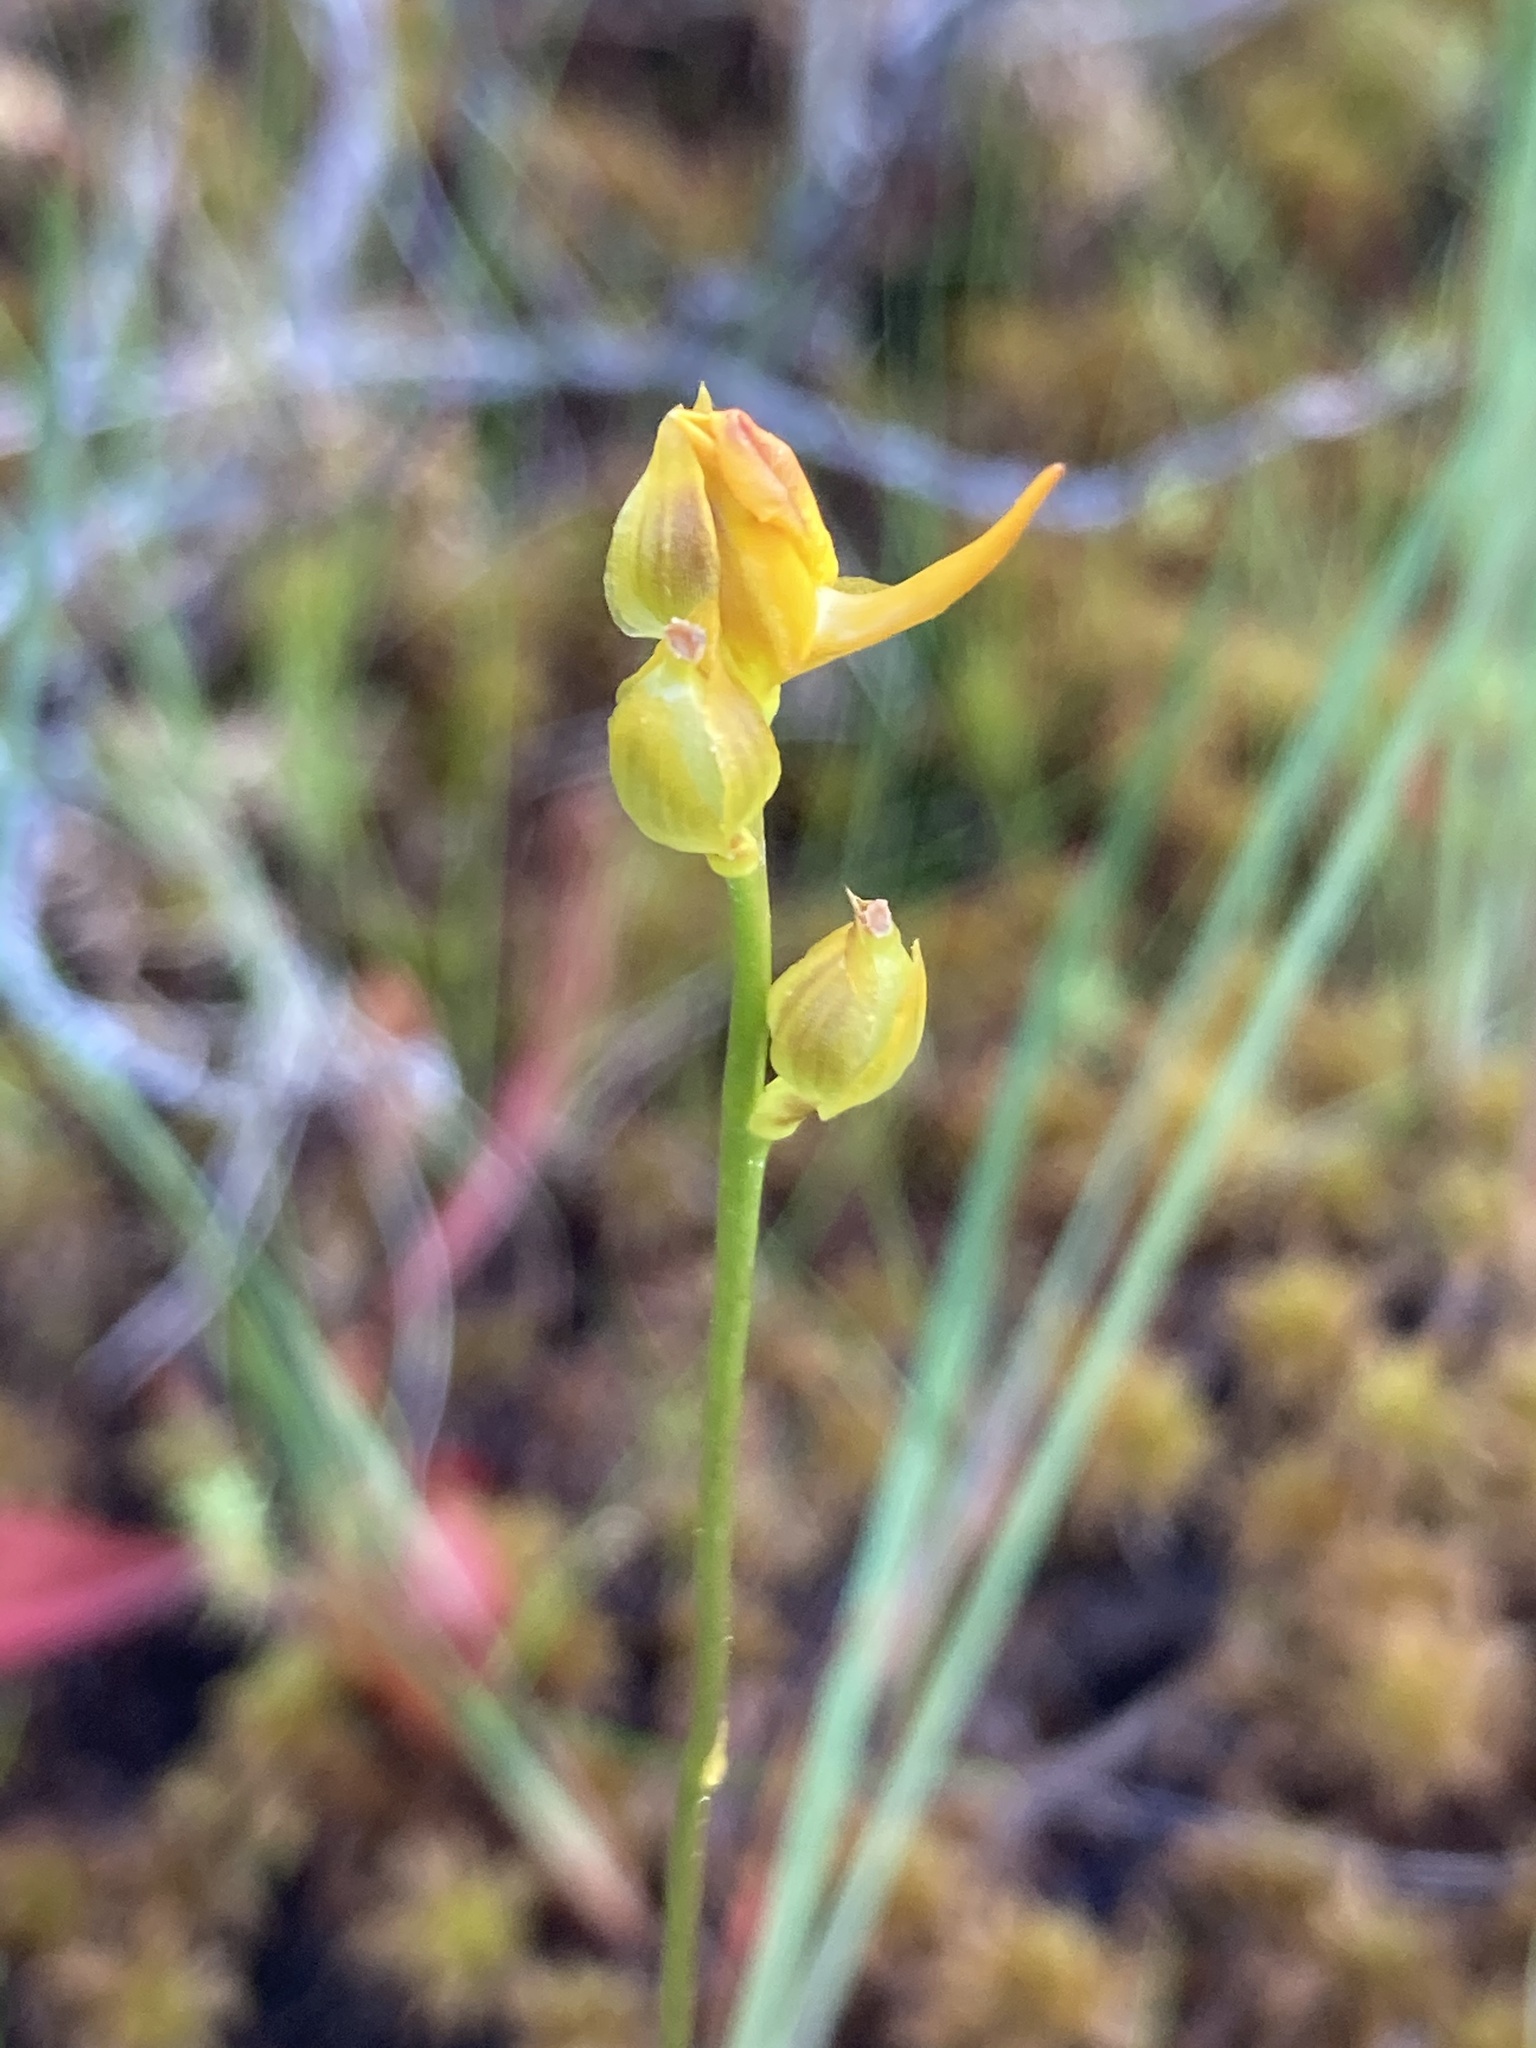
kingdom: Plantae
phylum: Tracheophyta
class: Magnoliopsida
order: Lamiales
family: Lentibulariaceae
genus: Utricularia
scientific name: Utricularia cornuta
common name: Horned bladderwort
